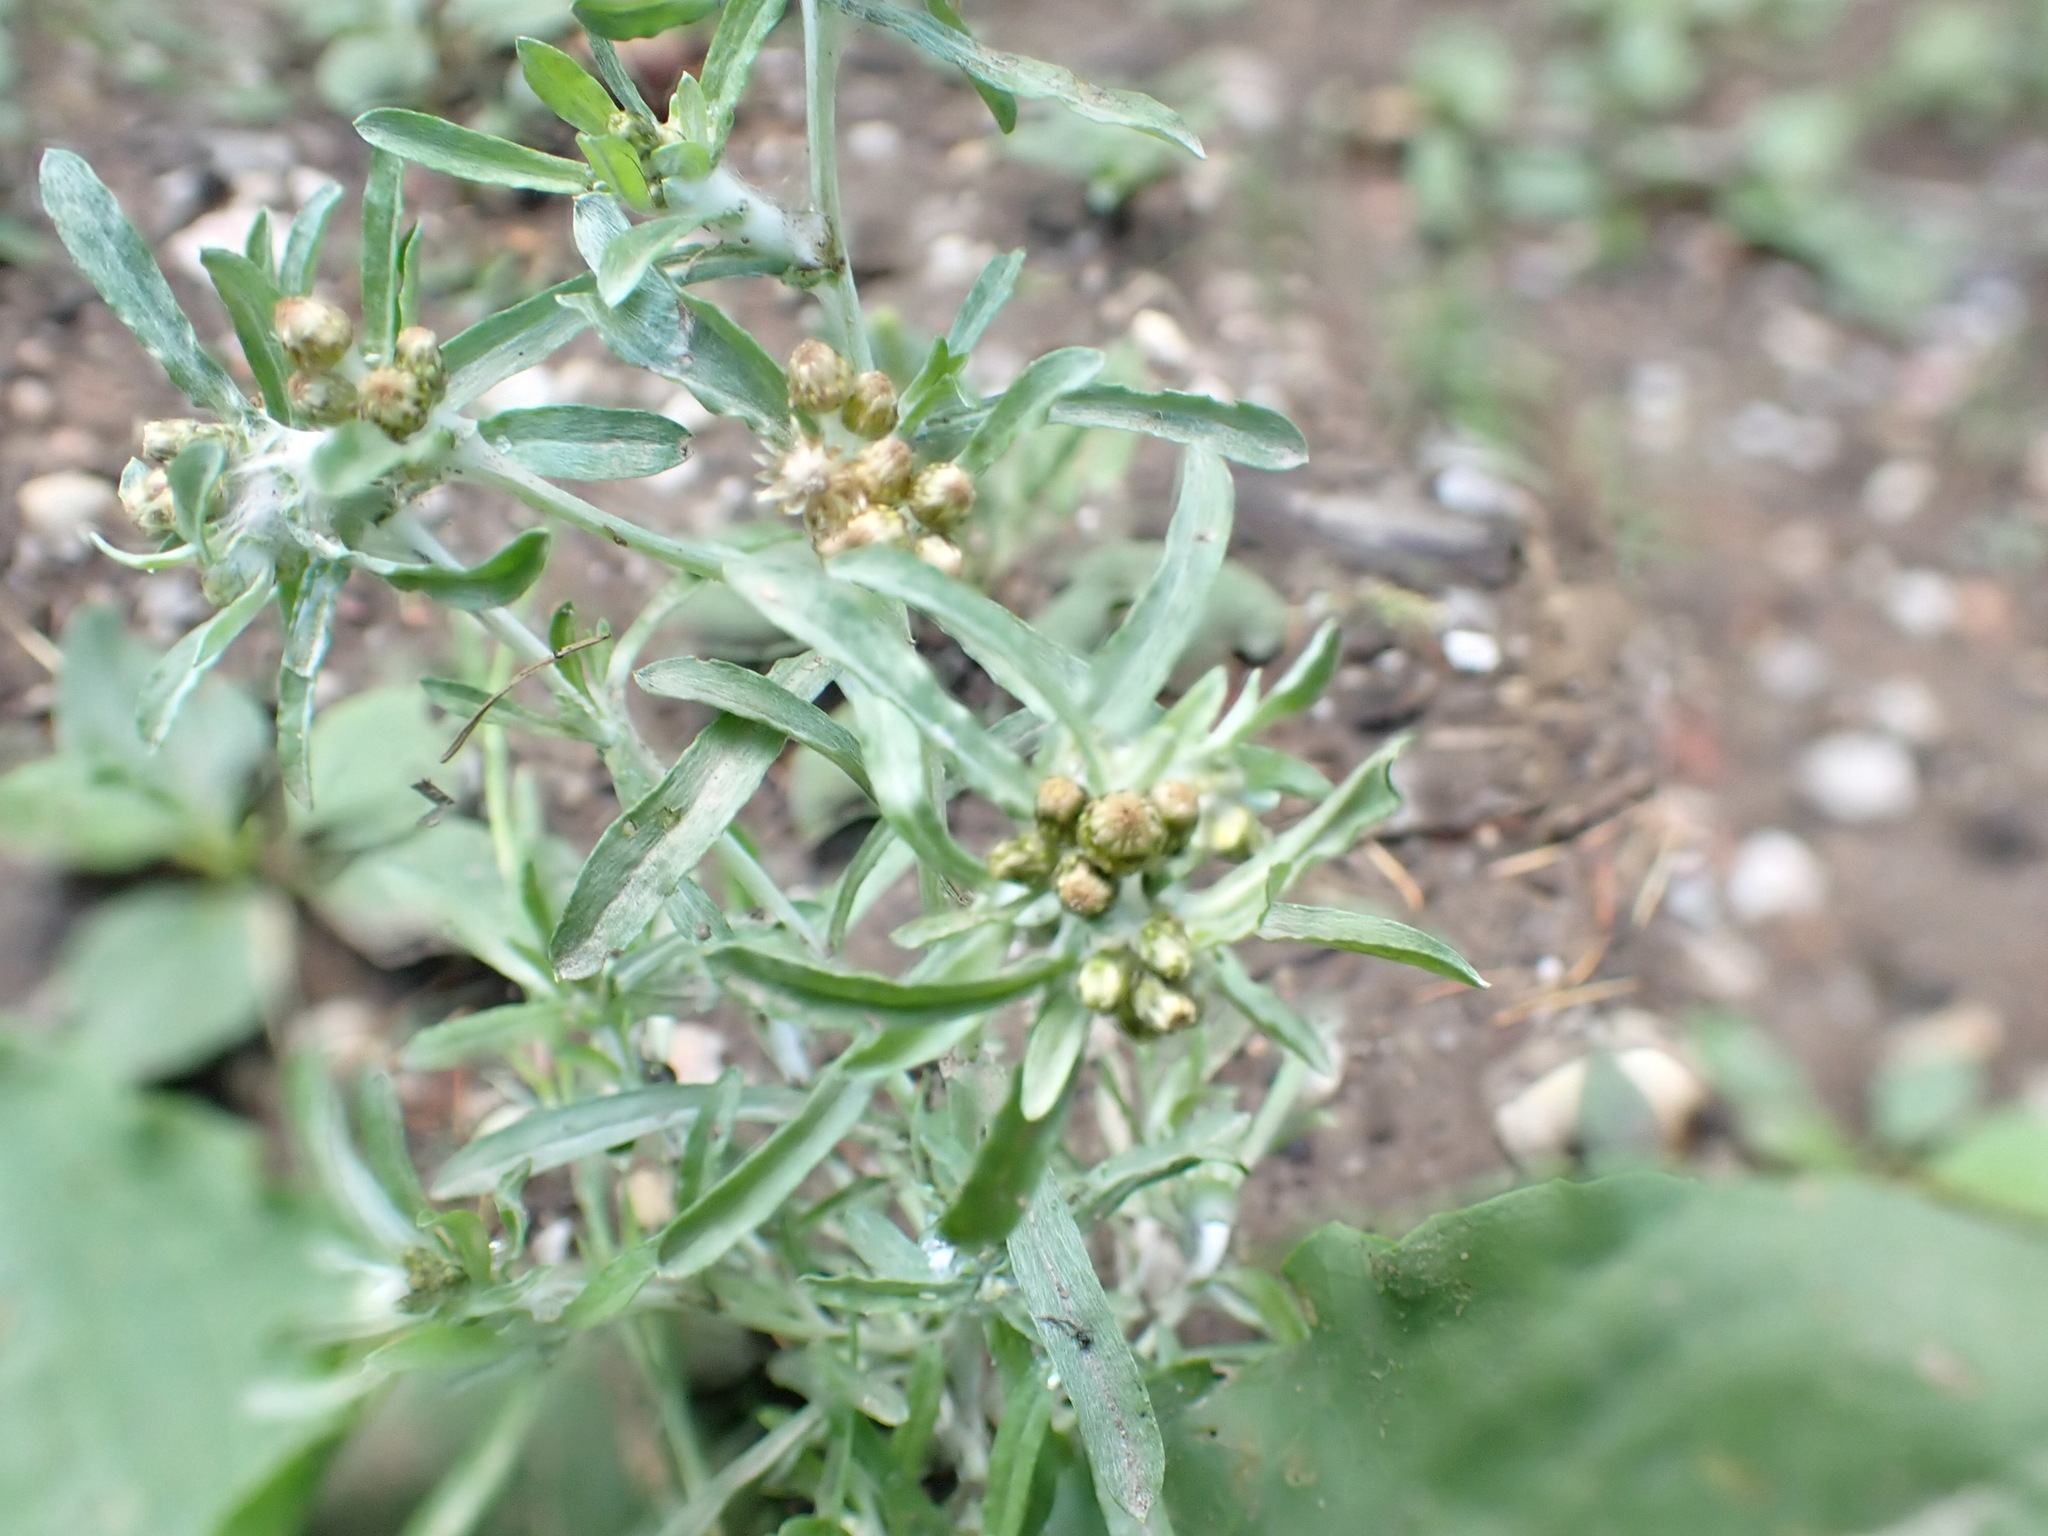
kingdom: Plantae
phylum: Tracheophyta
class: Magnoliopsida
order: Asterales
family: Asteraceae
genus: Gnaphalium
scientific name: Gnaphalium uliginosum
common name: Marsh cudweed
